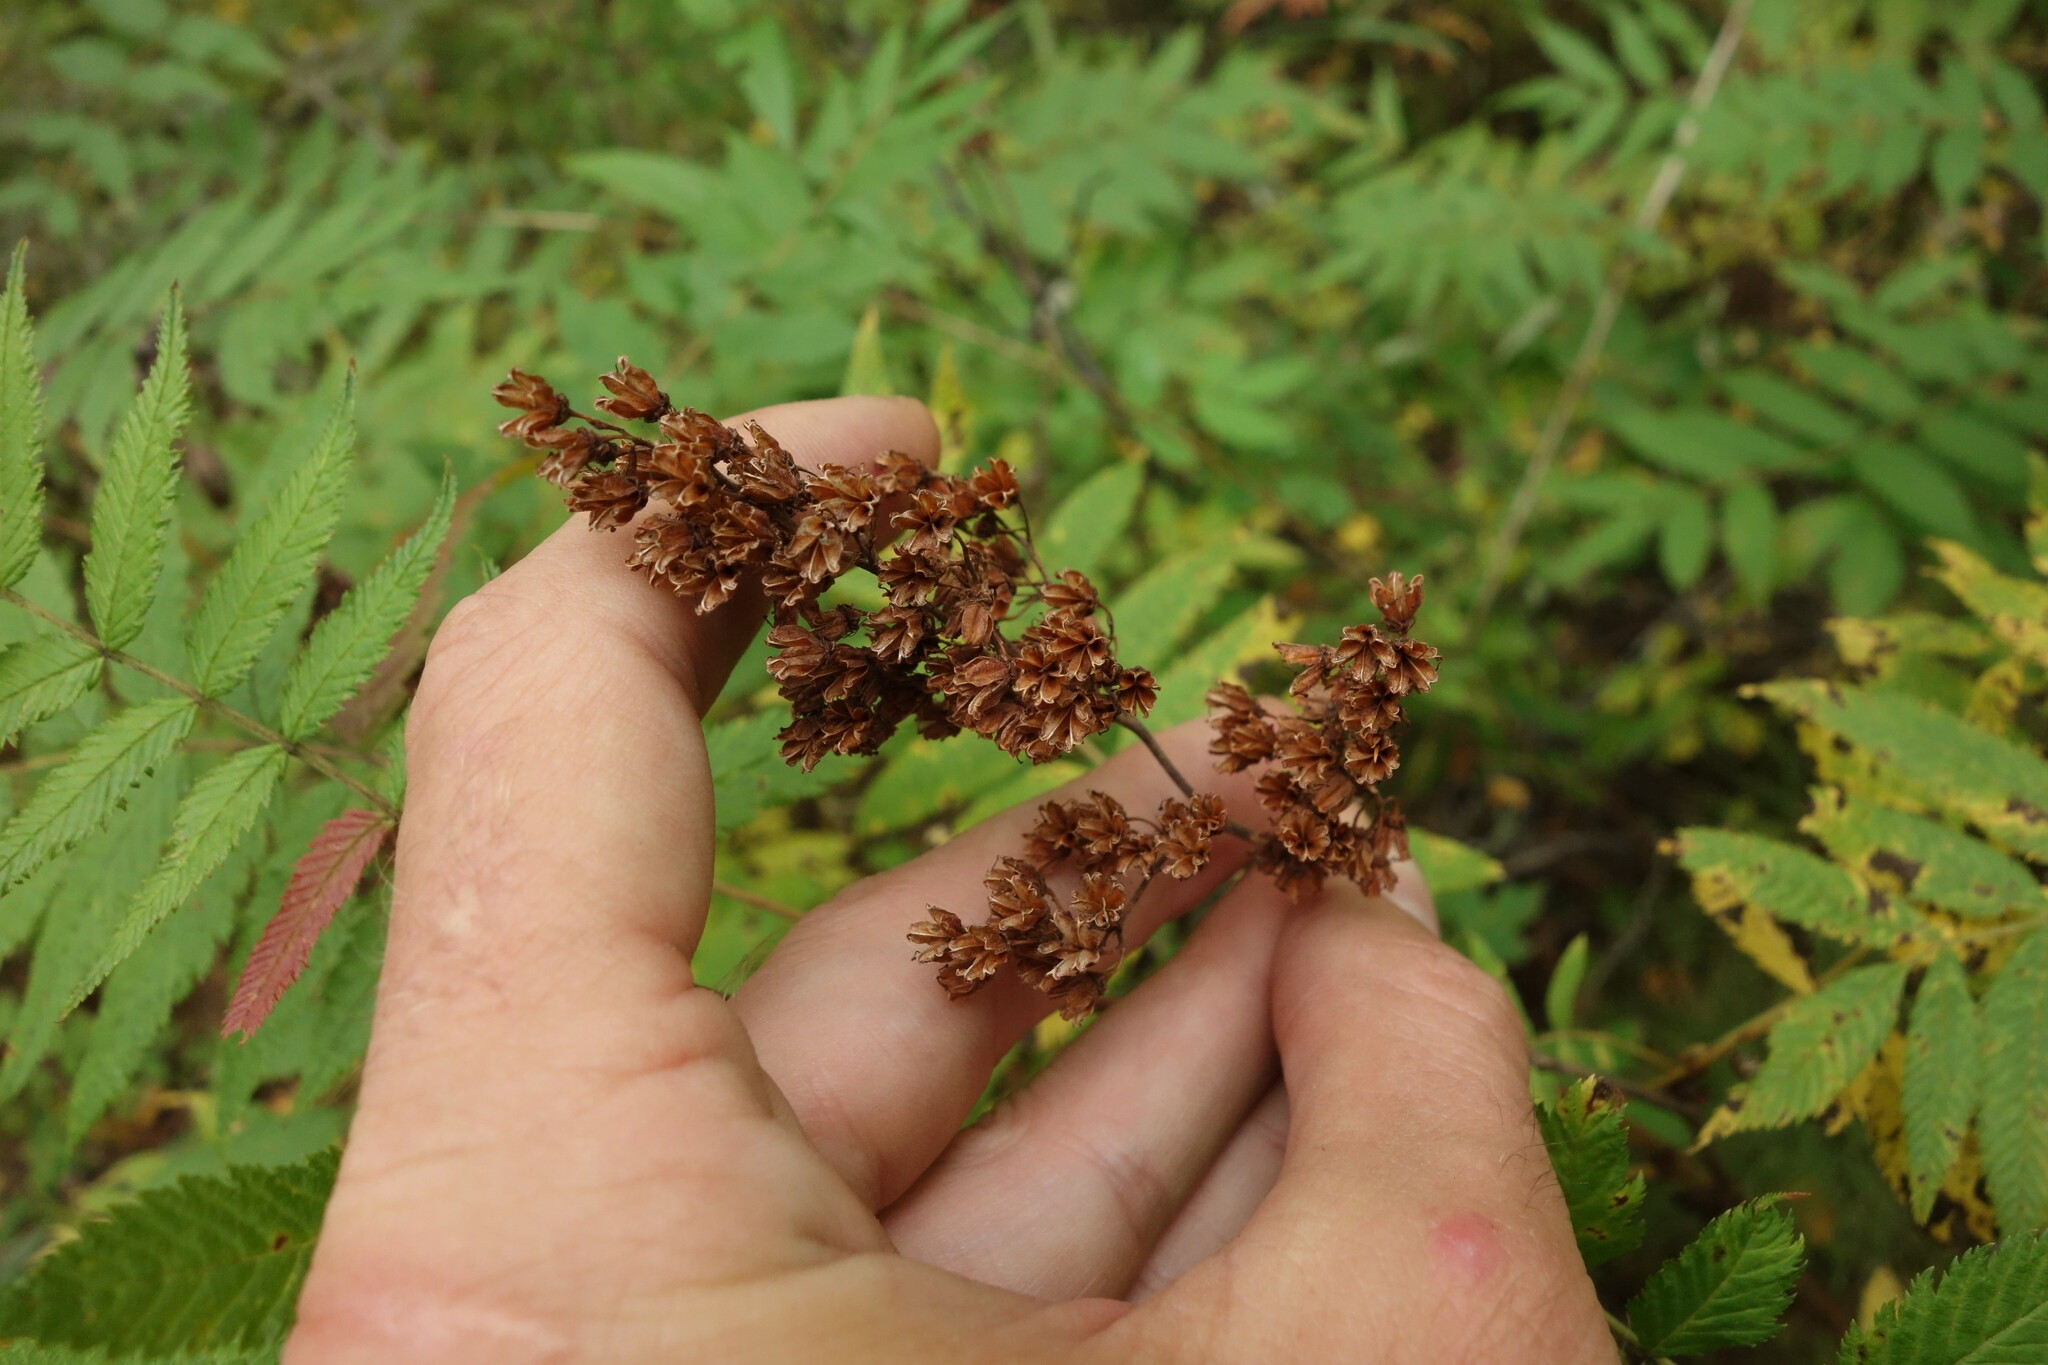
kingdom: Plantae
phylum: Tracheophyta
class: Magnoliopsida
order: Rosales
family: Rosaceae
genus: Sorbaria
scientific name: Sorbaria sorbifolia
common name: False spiraea
